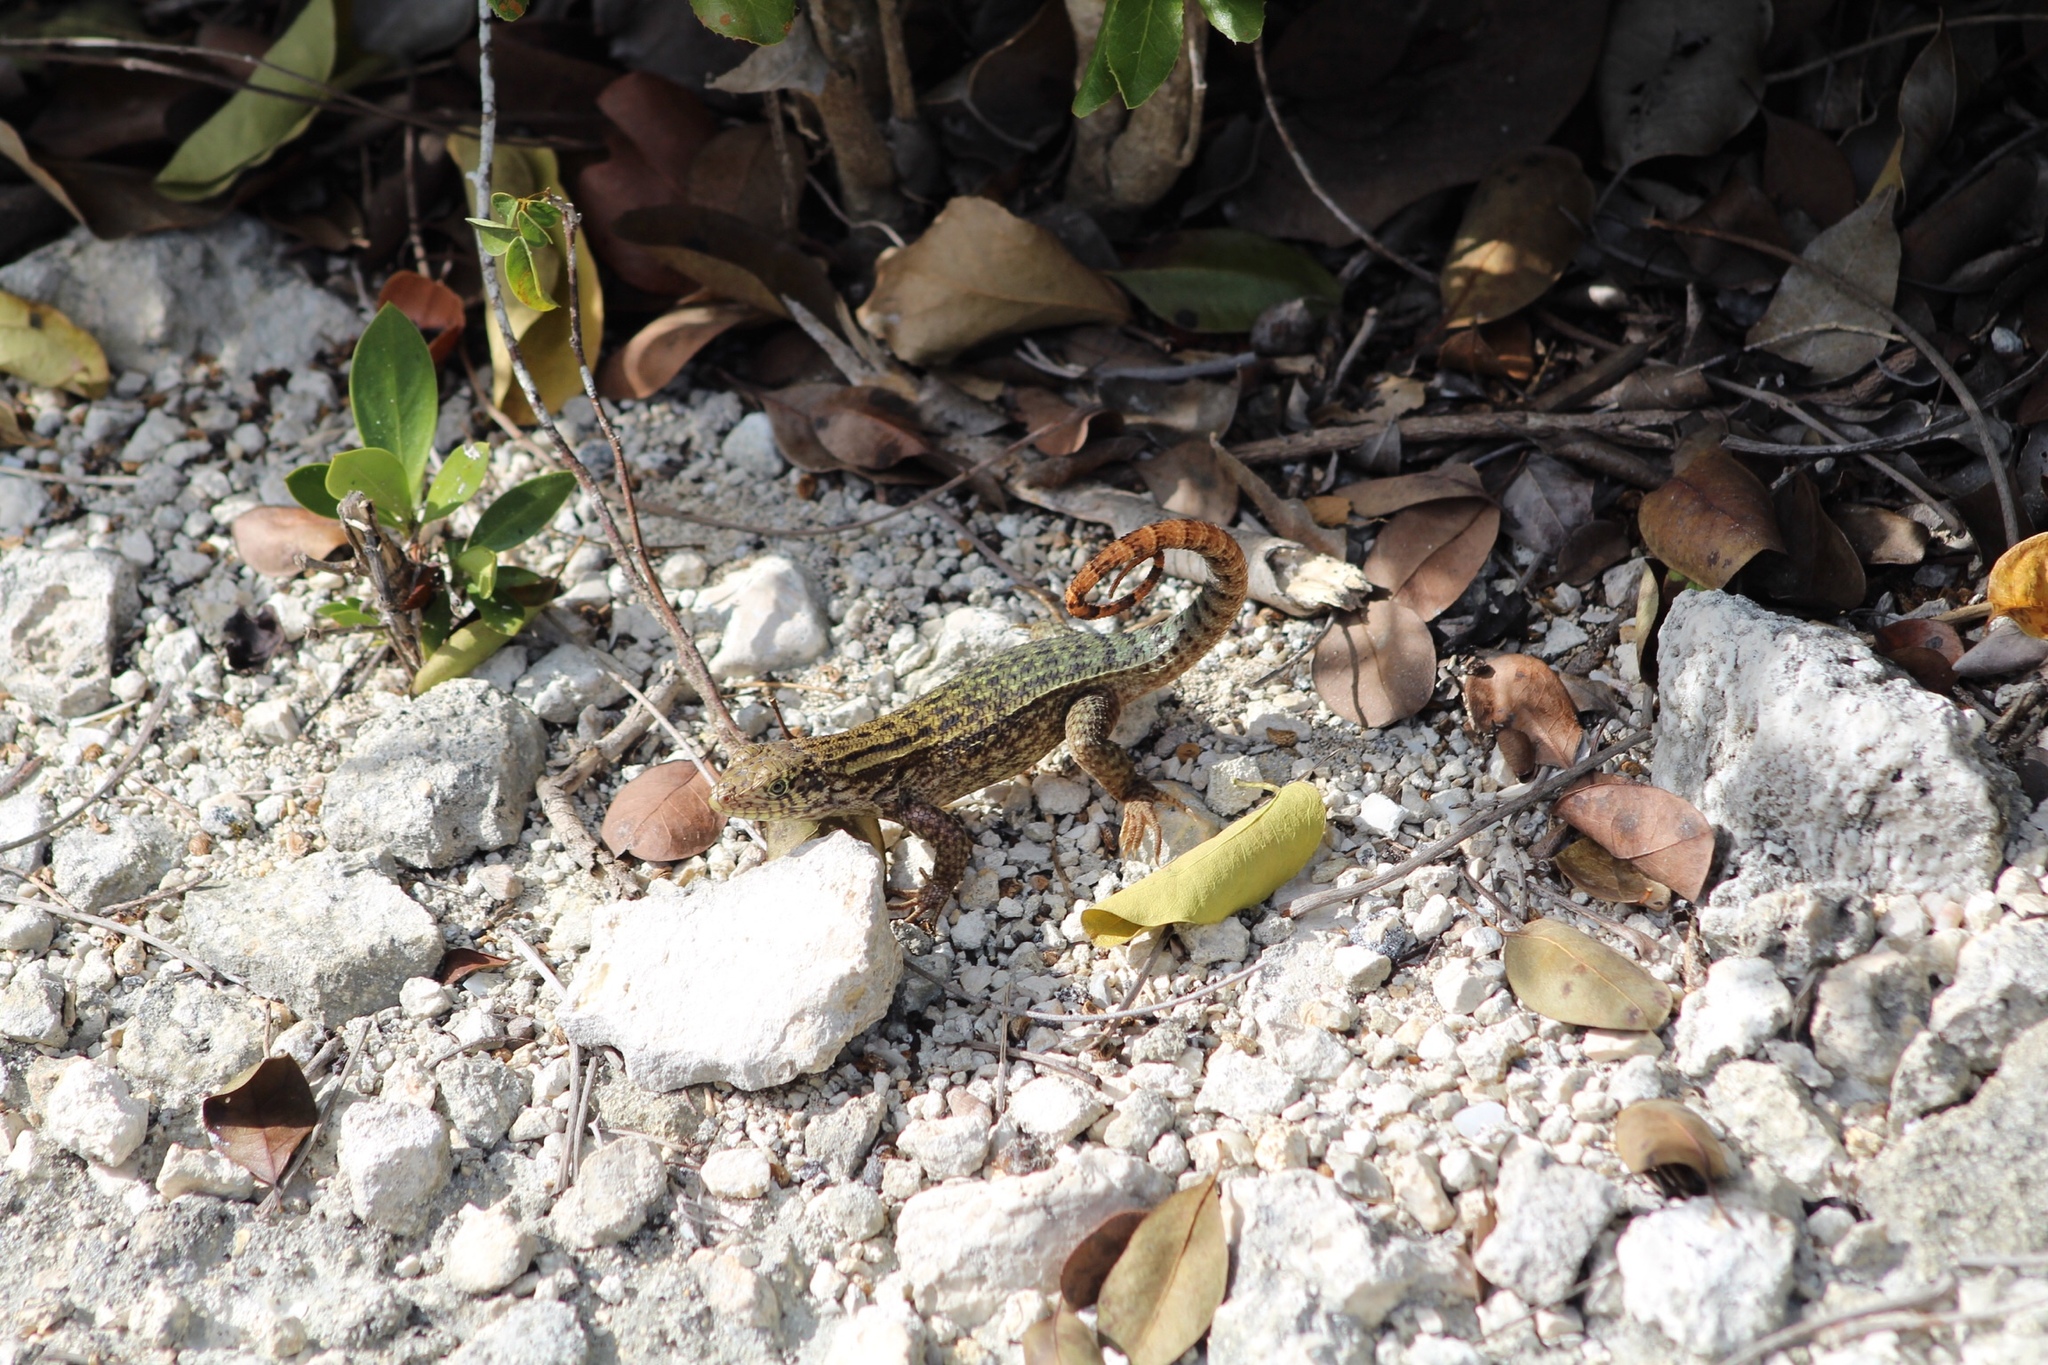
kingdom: Animalia
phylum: Chordata
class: Squamata
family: Leiocephalidae
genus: Leiocephalus
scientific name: Leiocephalus carinatus
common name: Northern curly-tailed lizard
